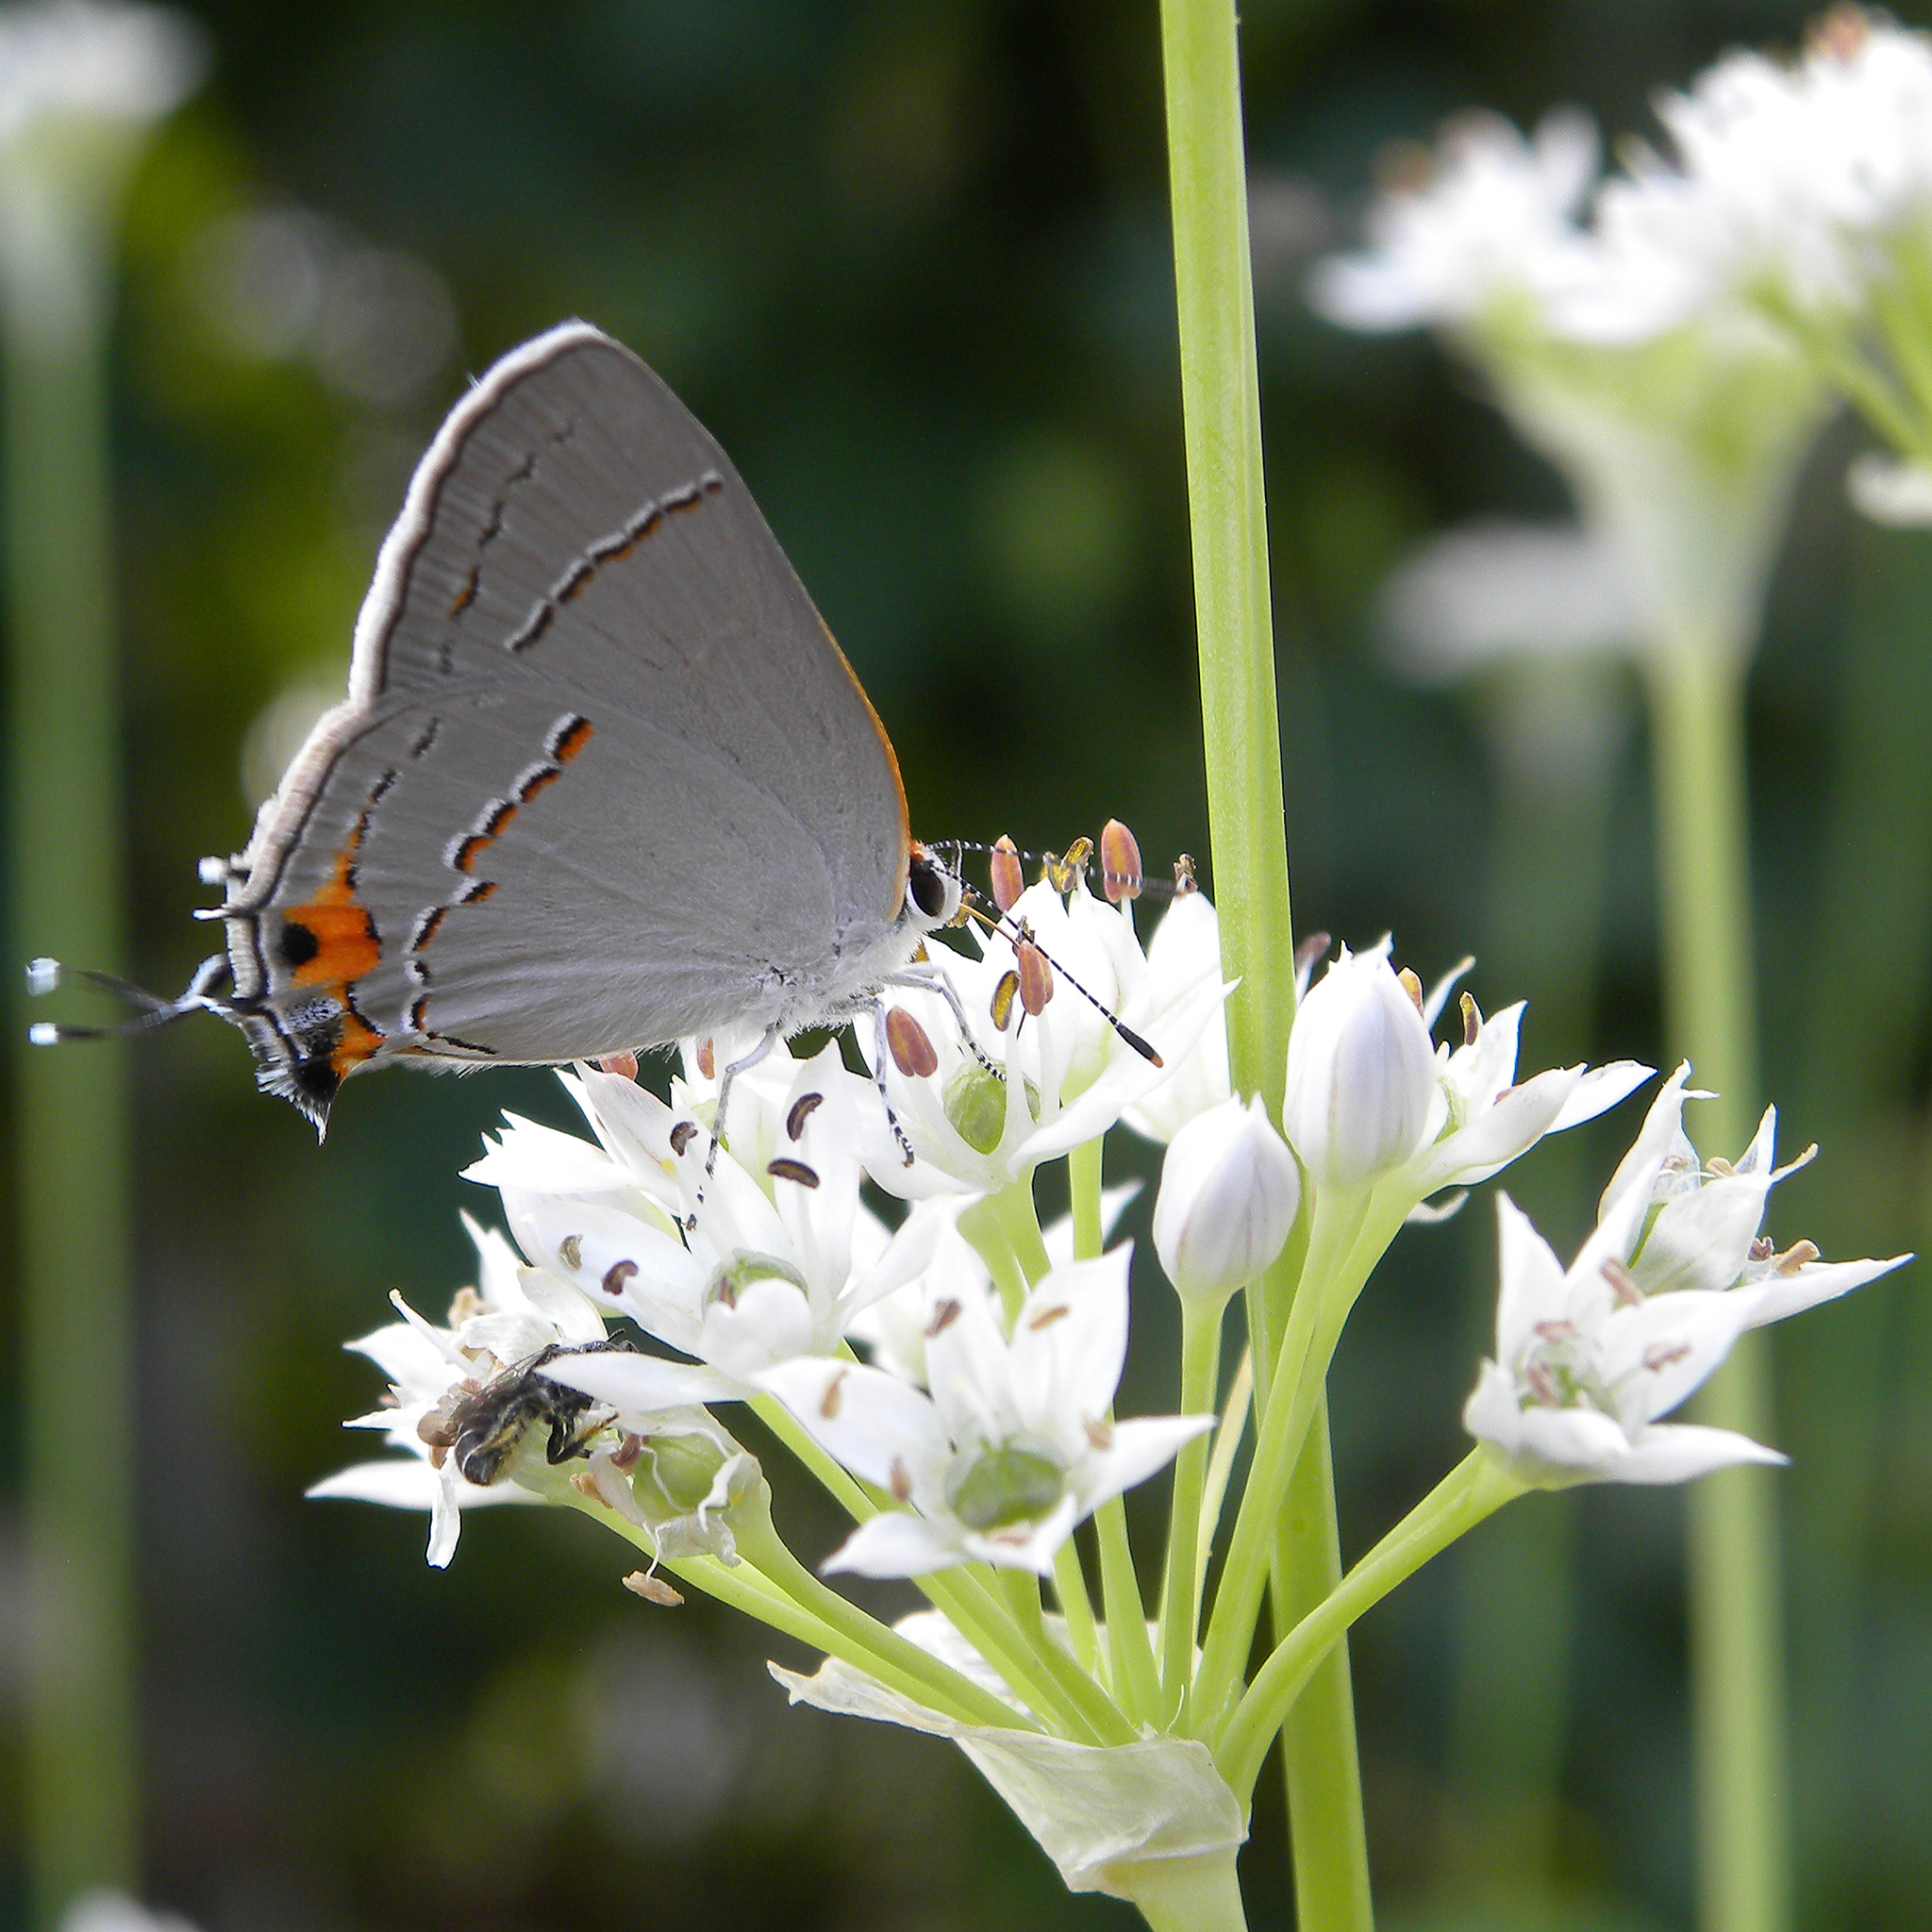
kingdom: Animalia
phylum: Arthropoda
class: Insecta
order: Lepidoptera
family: Lycaenidae
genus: Strymon
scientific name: Strymon melinus
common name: Gray hairstreak
